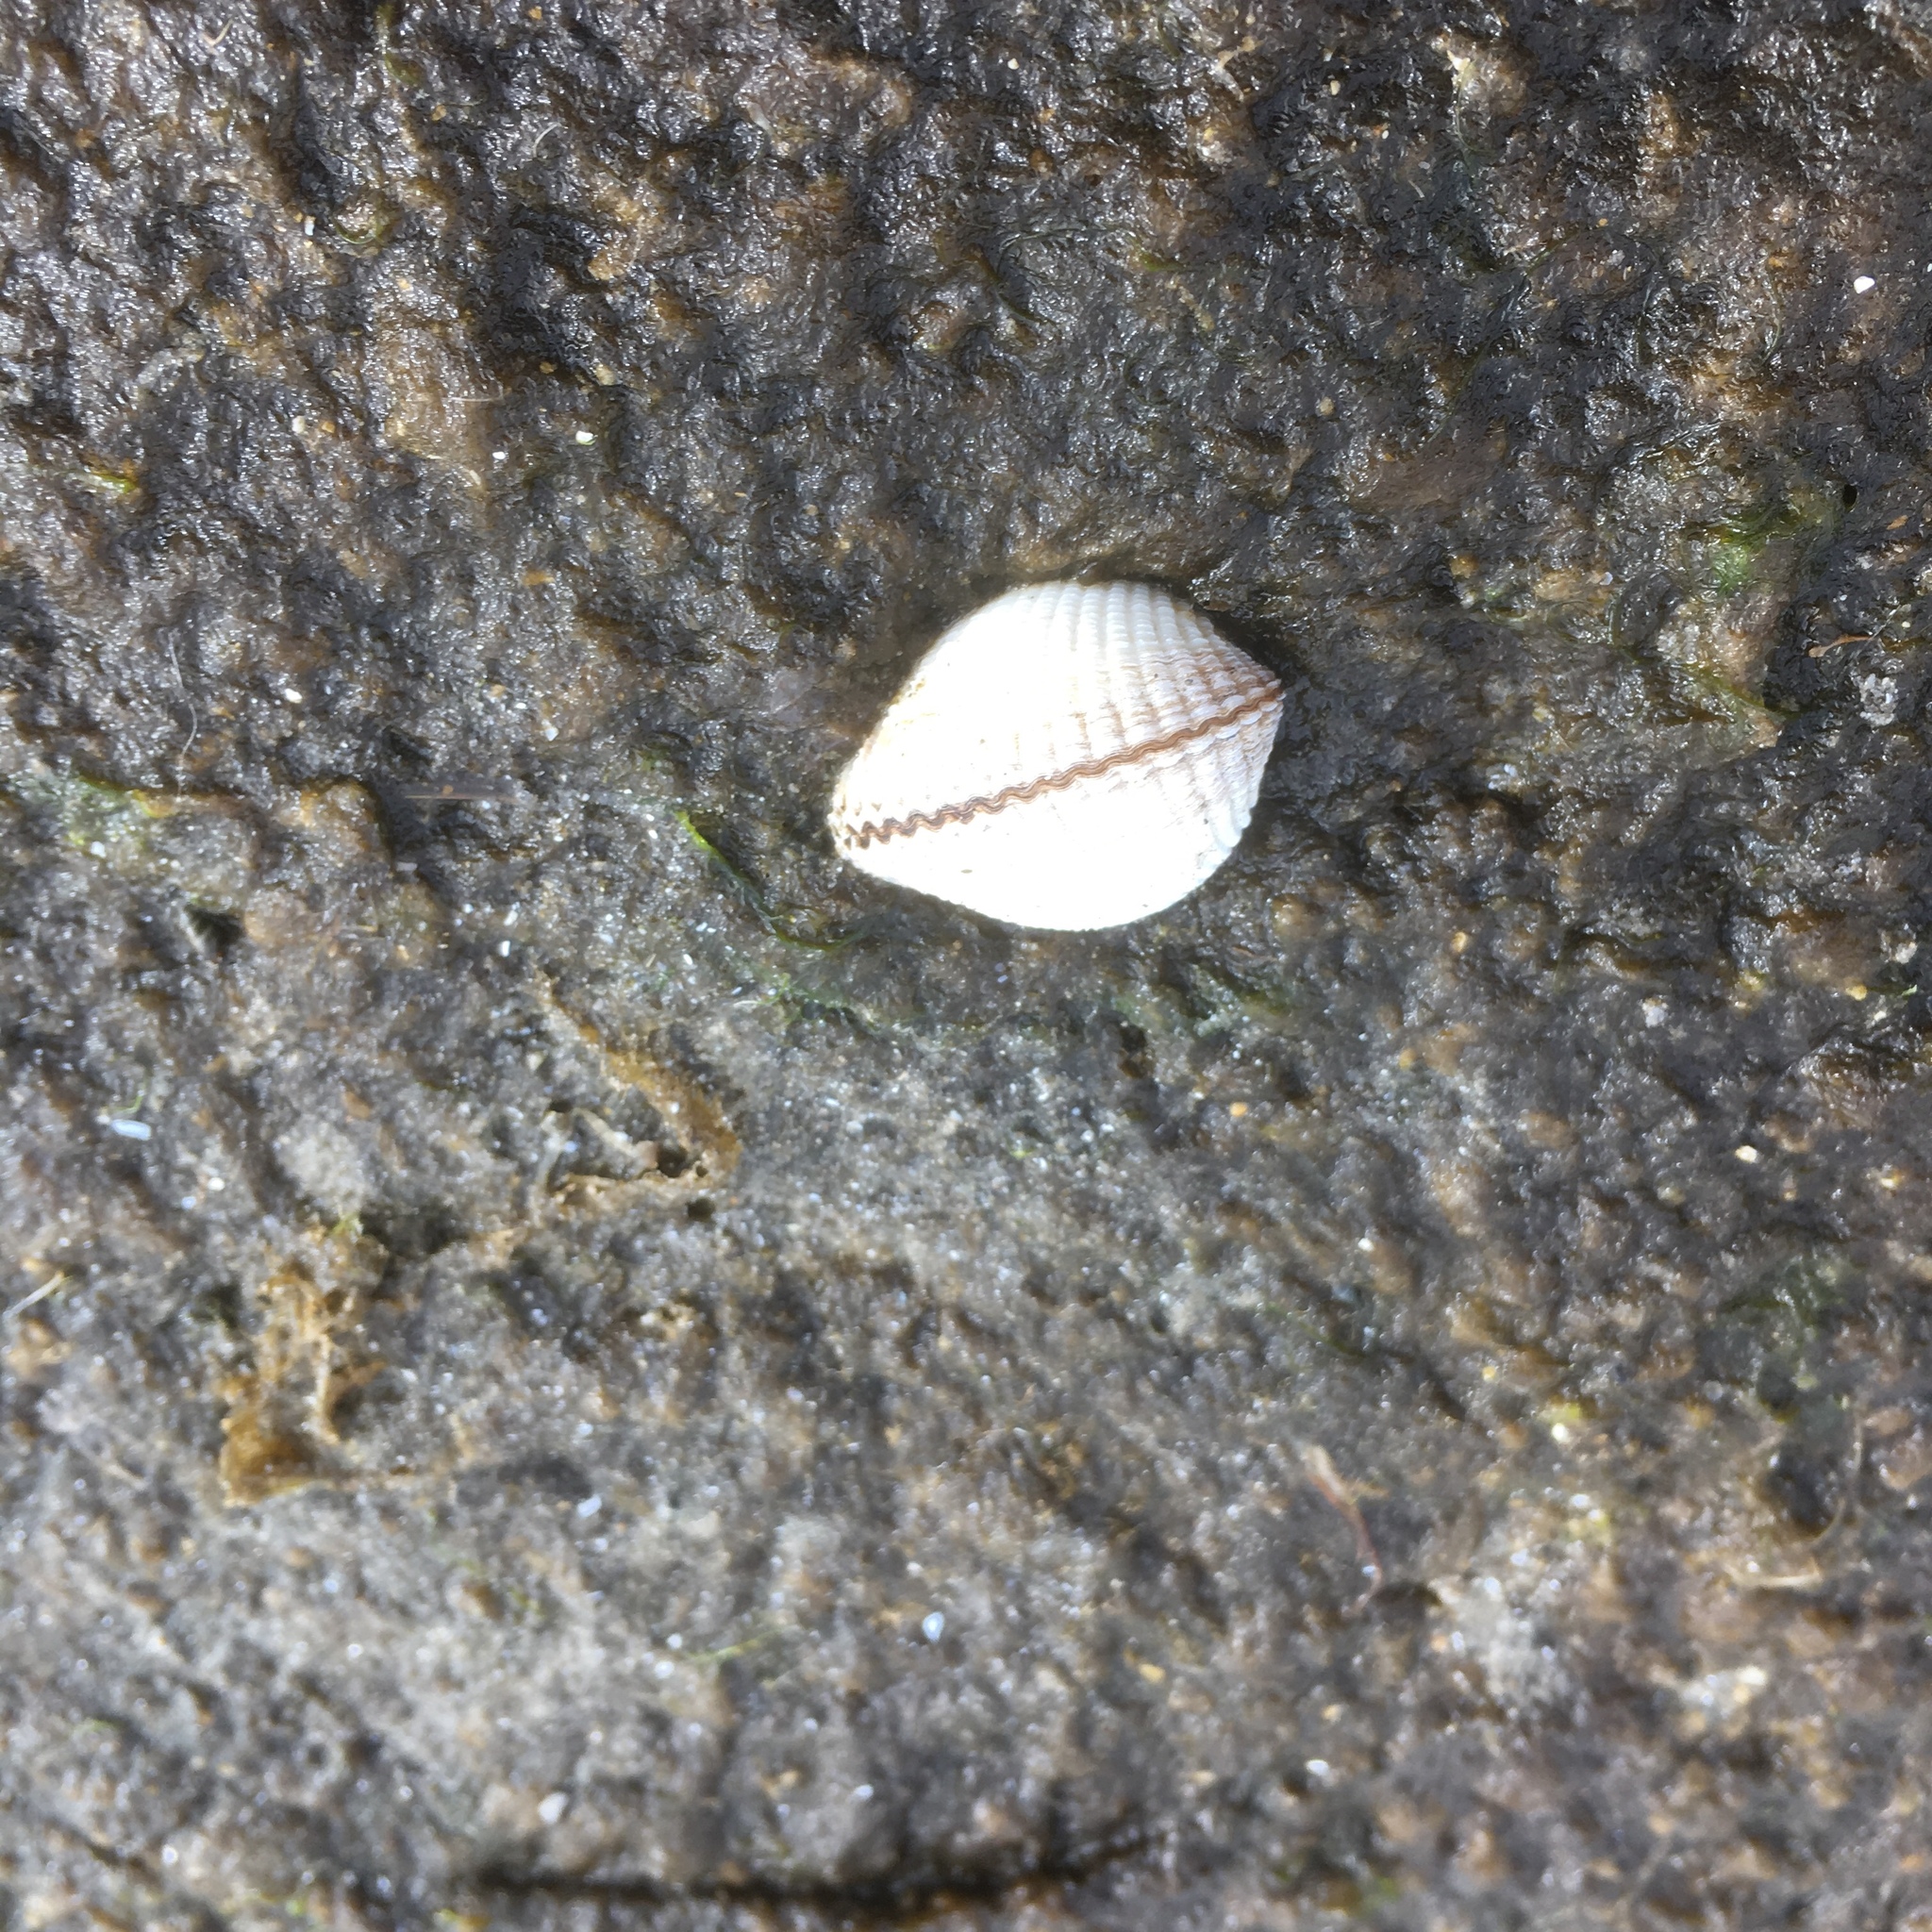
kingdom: Animalia
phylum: Mollusca
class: Bivalvia
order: Cardiida
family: Cardiidae
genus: Cerastoderma
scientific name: Cerastoderma edule
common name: Common cockle
